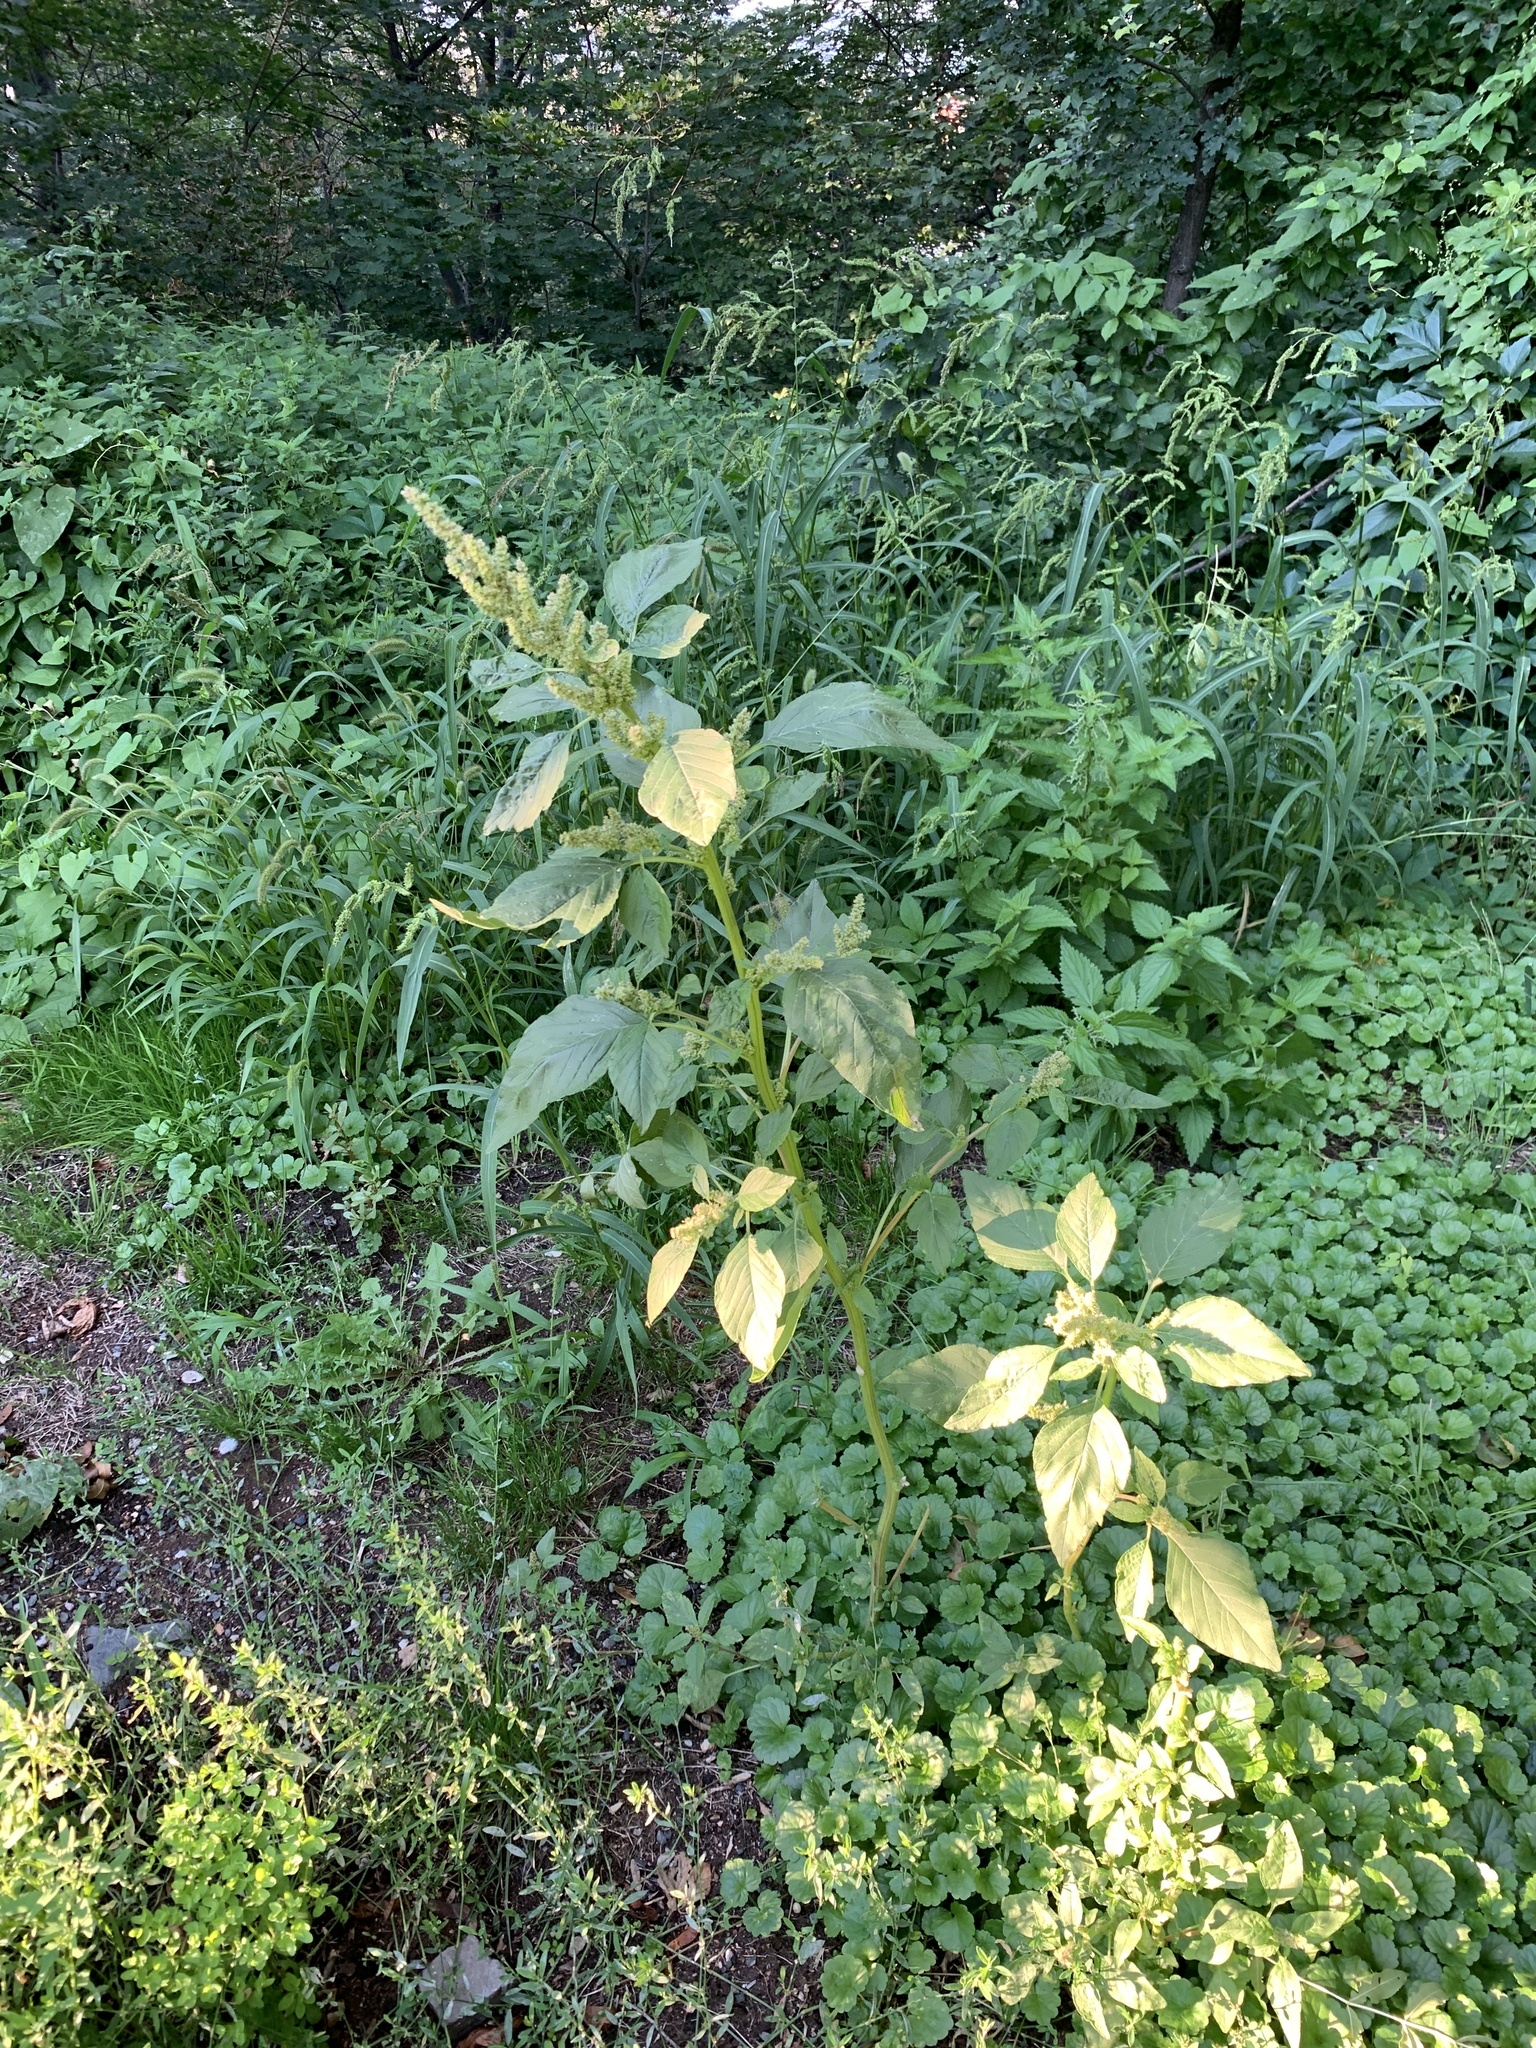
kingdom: Plantae
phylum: Tracheophyta
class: Magnoliopsida
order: Caryophyllales
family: Amaranthaceae
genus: Amaranthus
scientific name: Amaranthus retroflexus
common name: Redroot amaranth
